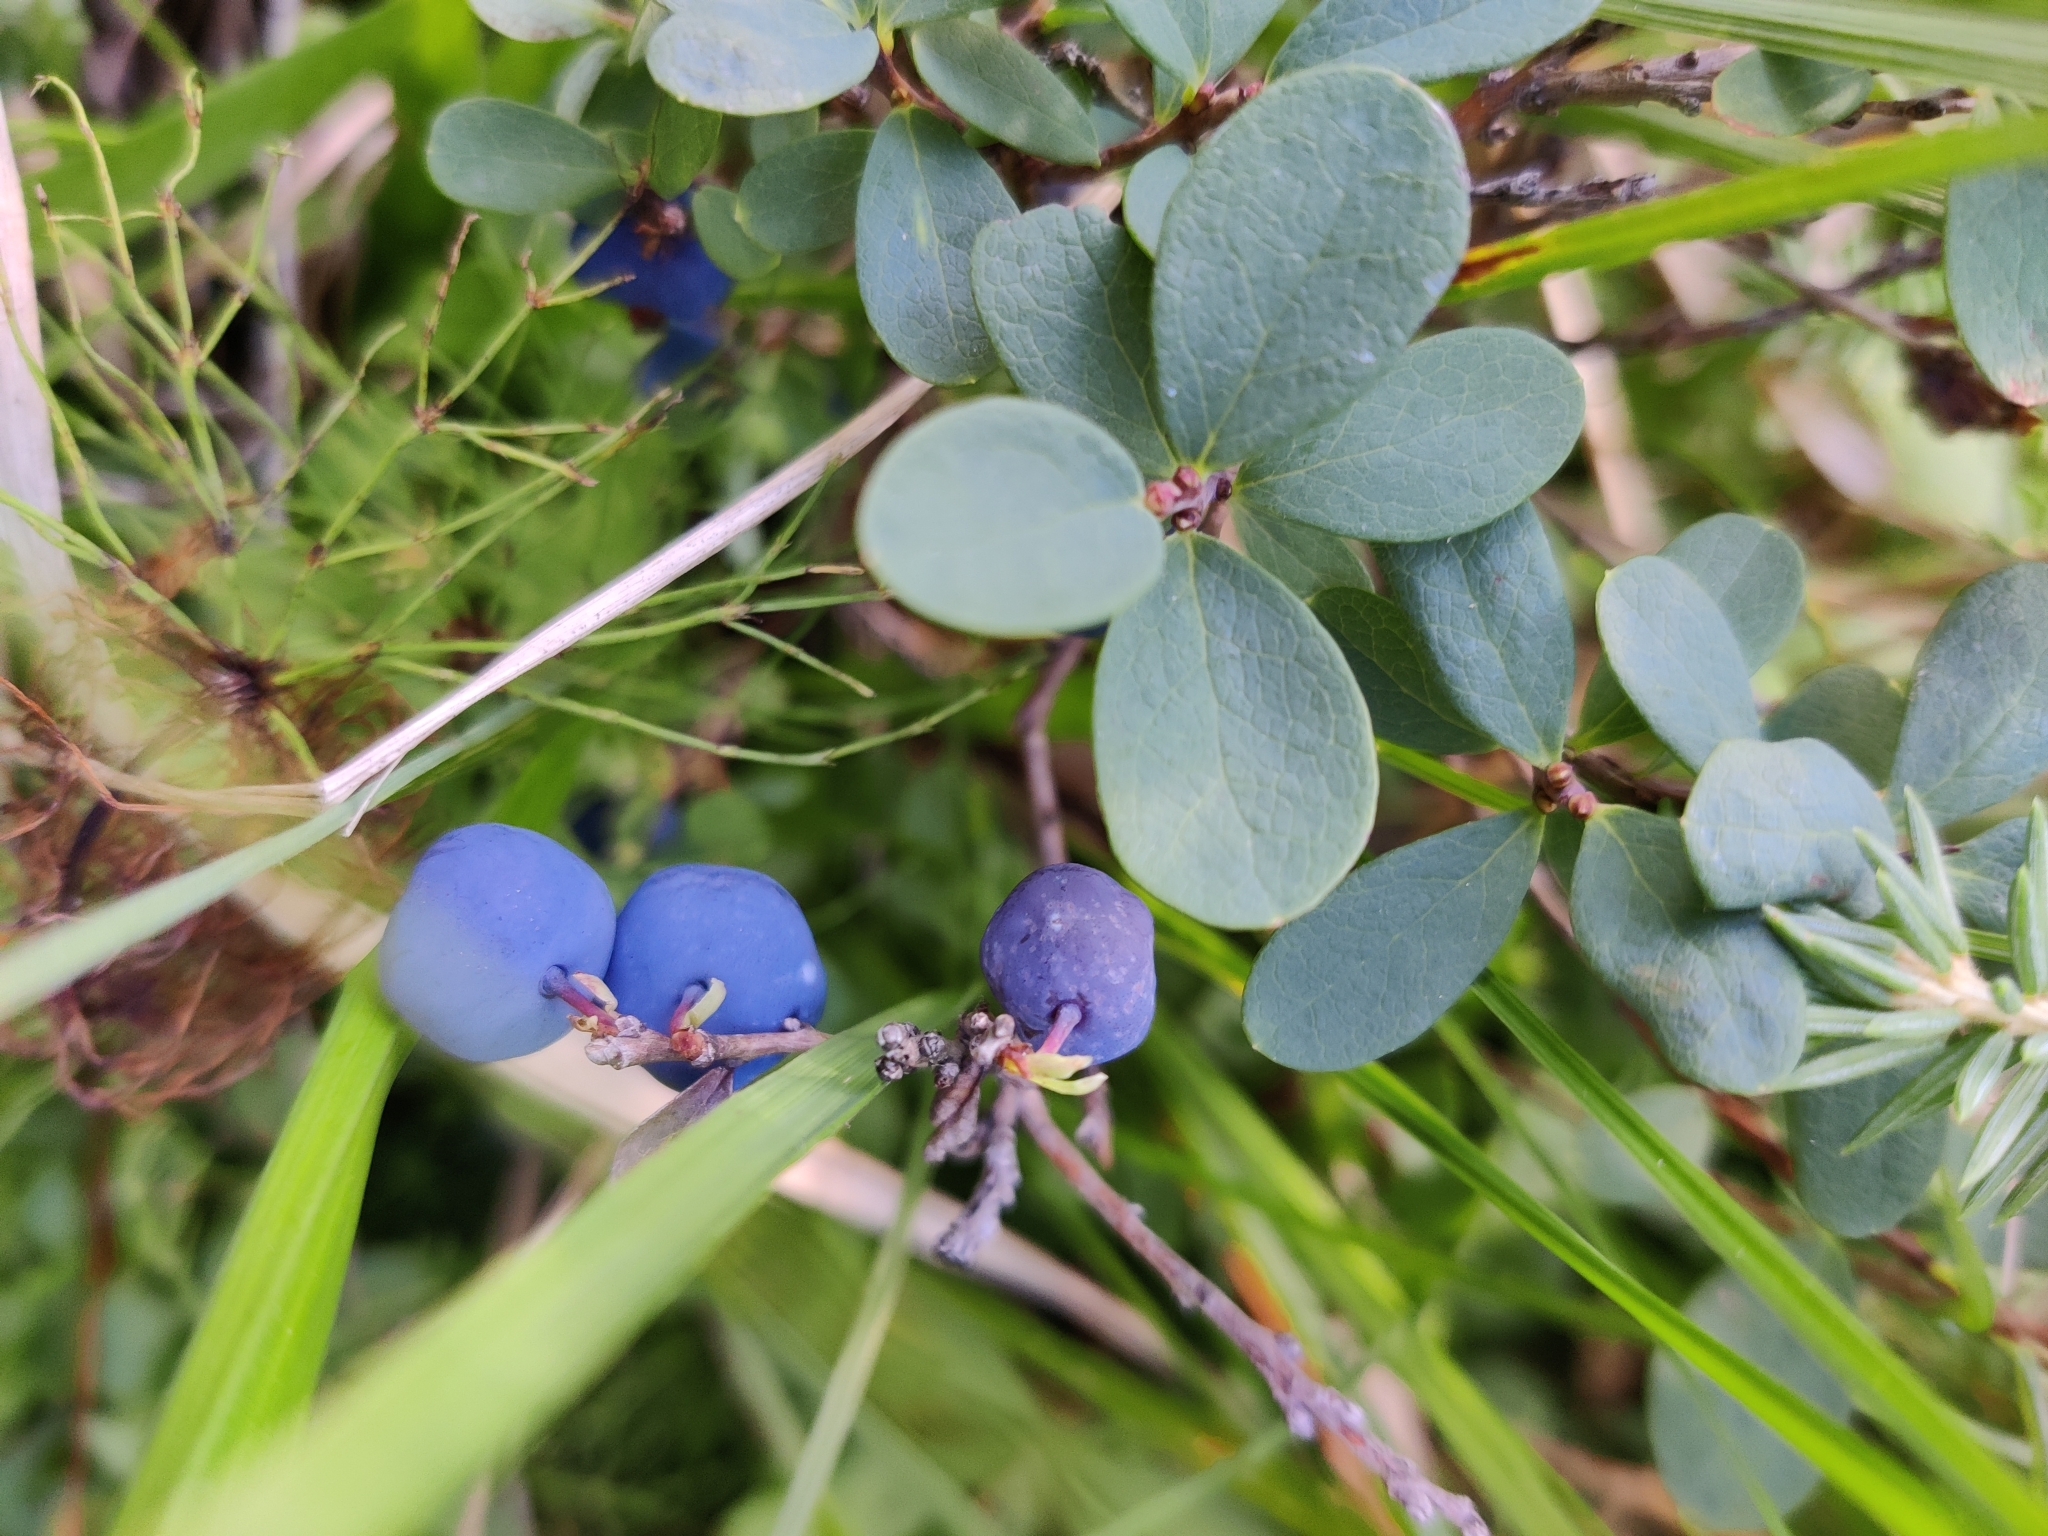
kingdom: Plantae
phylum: Tracheophyta
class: Magnoliopsida
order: Ericales
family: Ericaceae
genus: Vaccinium
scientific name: Vaccinium uliginosum
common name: Bog bilberry
